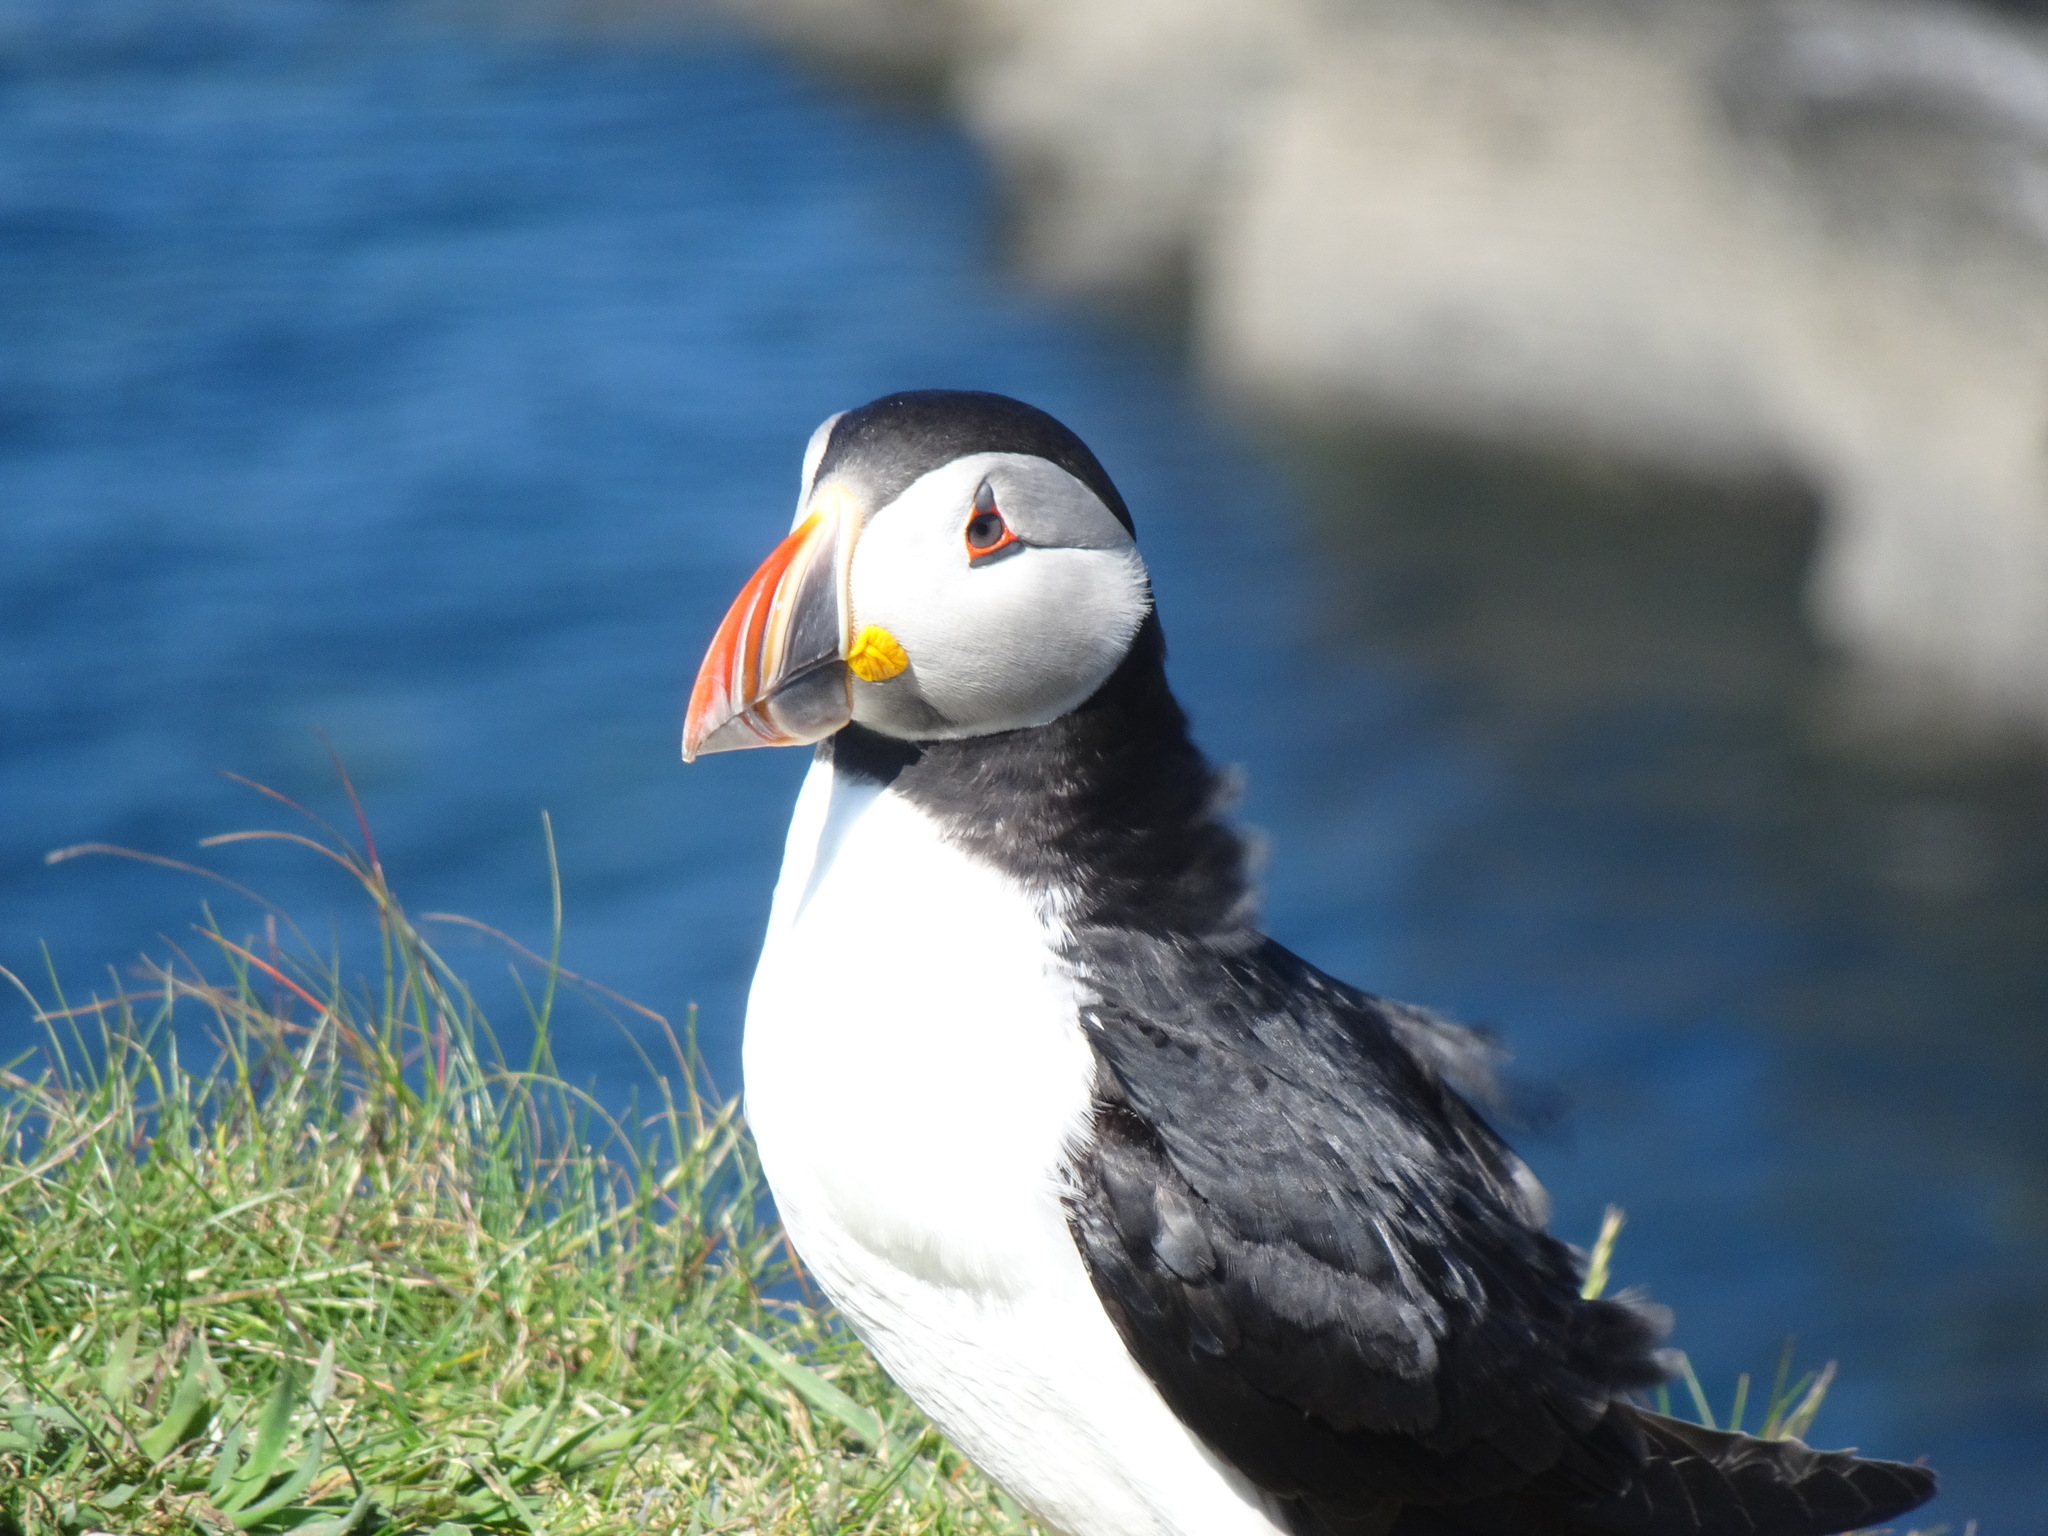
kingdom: Animalia
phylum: Chordata
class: Aves
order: Charadriiformes
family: Alcidae
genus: Fratercula
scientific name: Fratercula arctica
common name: Atlantic puffin
